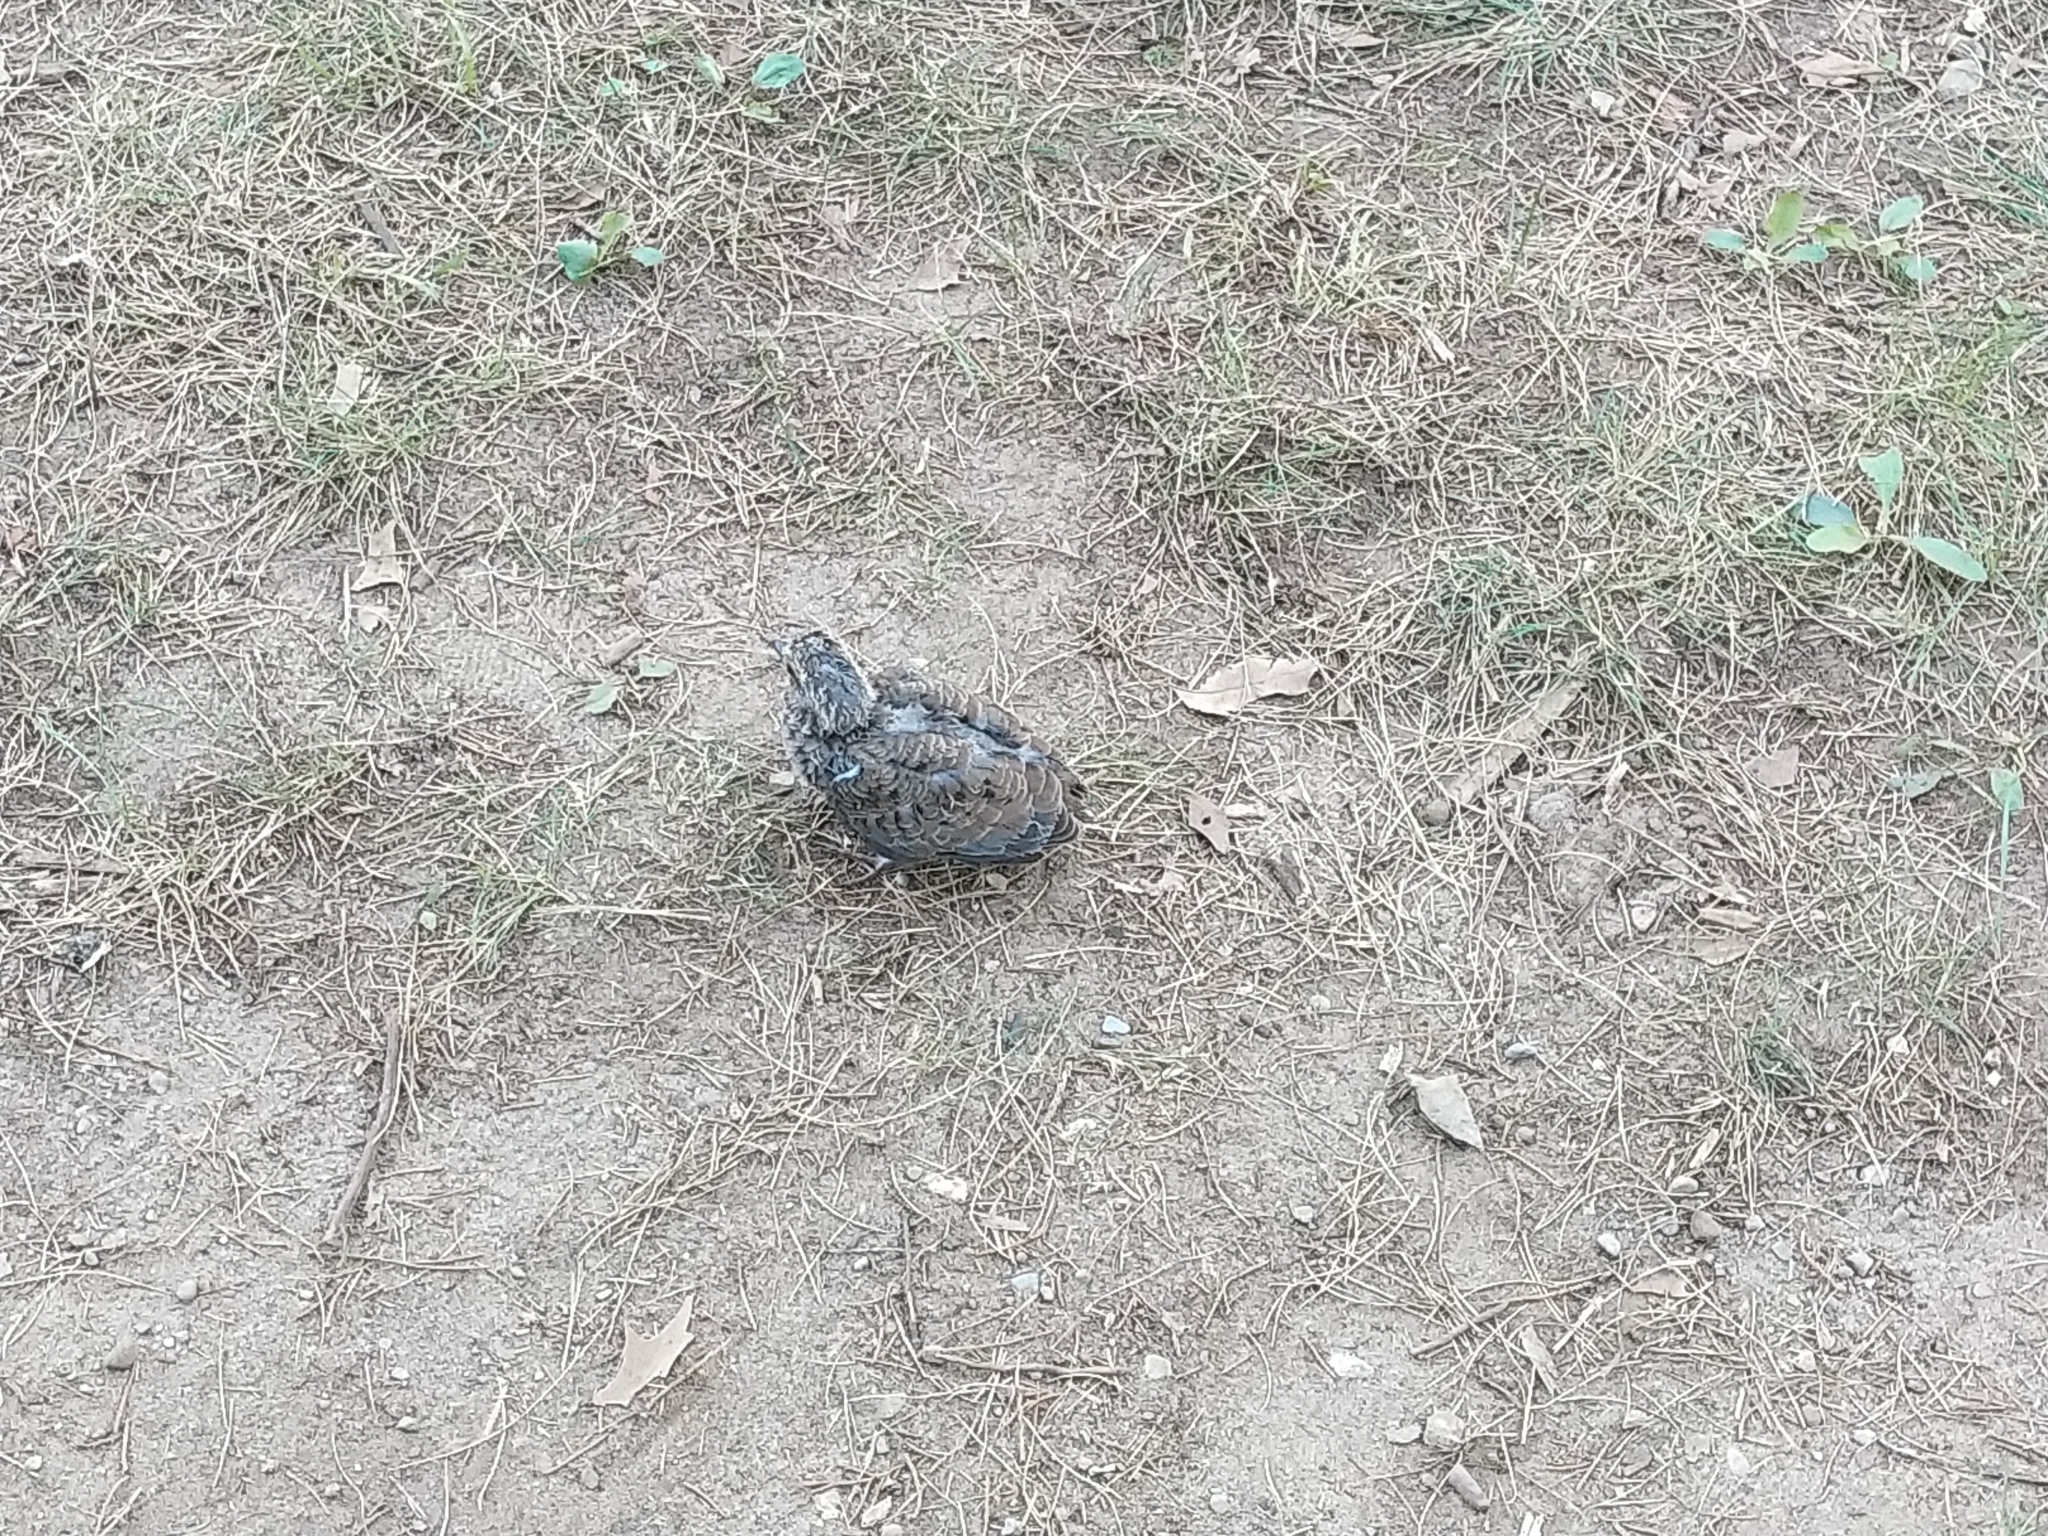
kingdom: Animalia
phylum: Chordata
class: Aves
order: Columbiformes
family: Columbidae
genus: Zenaida
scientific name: Zenaida macroura
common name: Mourning dove
